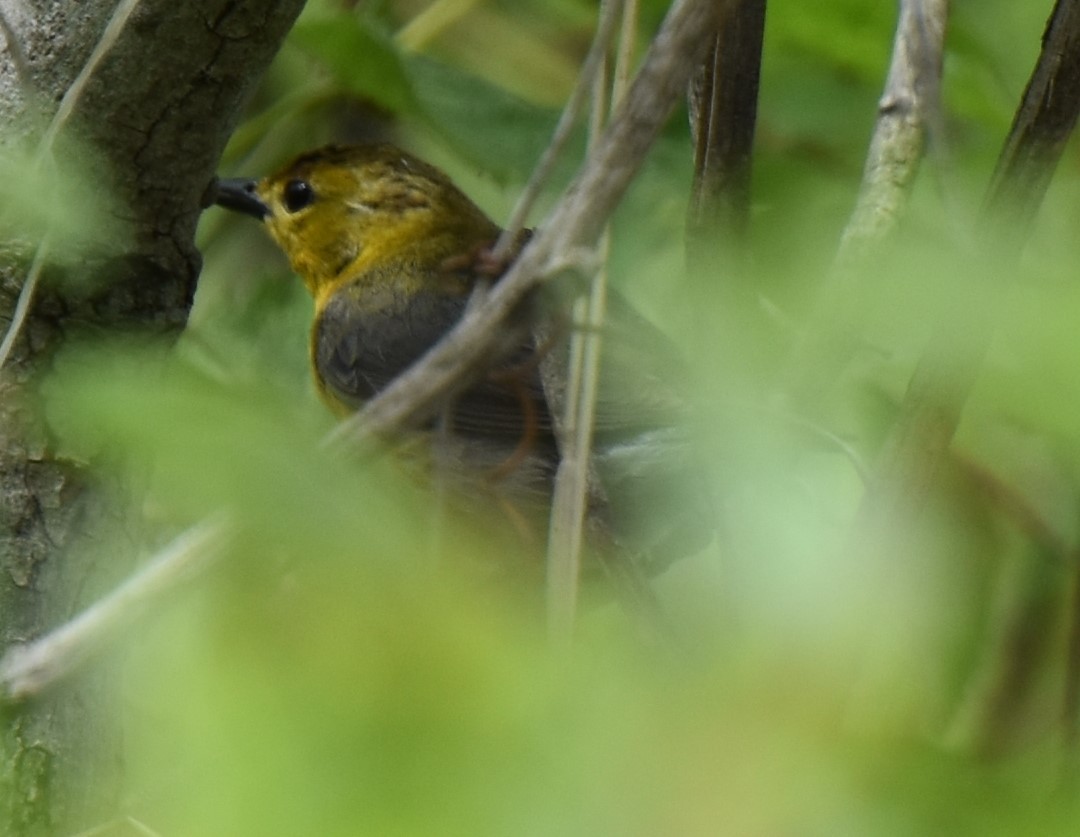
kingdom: Animalia
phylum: Chordata
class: Aves
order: Passeriformes
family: Parulidae
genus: Protonotaria
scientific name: Protonotaria citrea
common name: Prothonotary warbler
